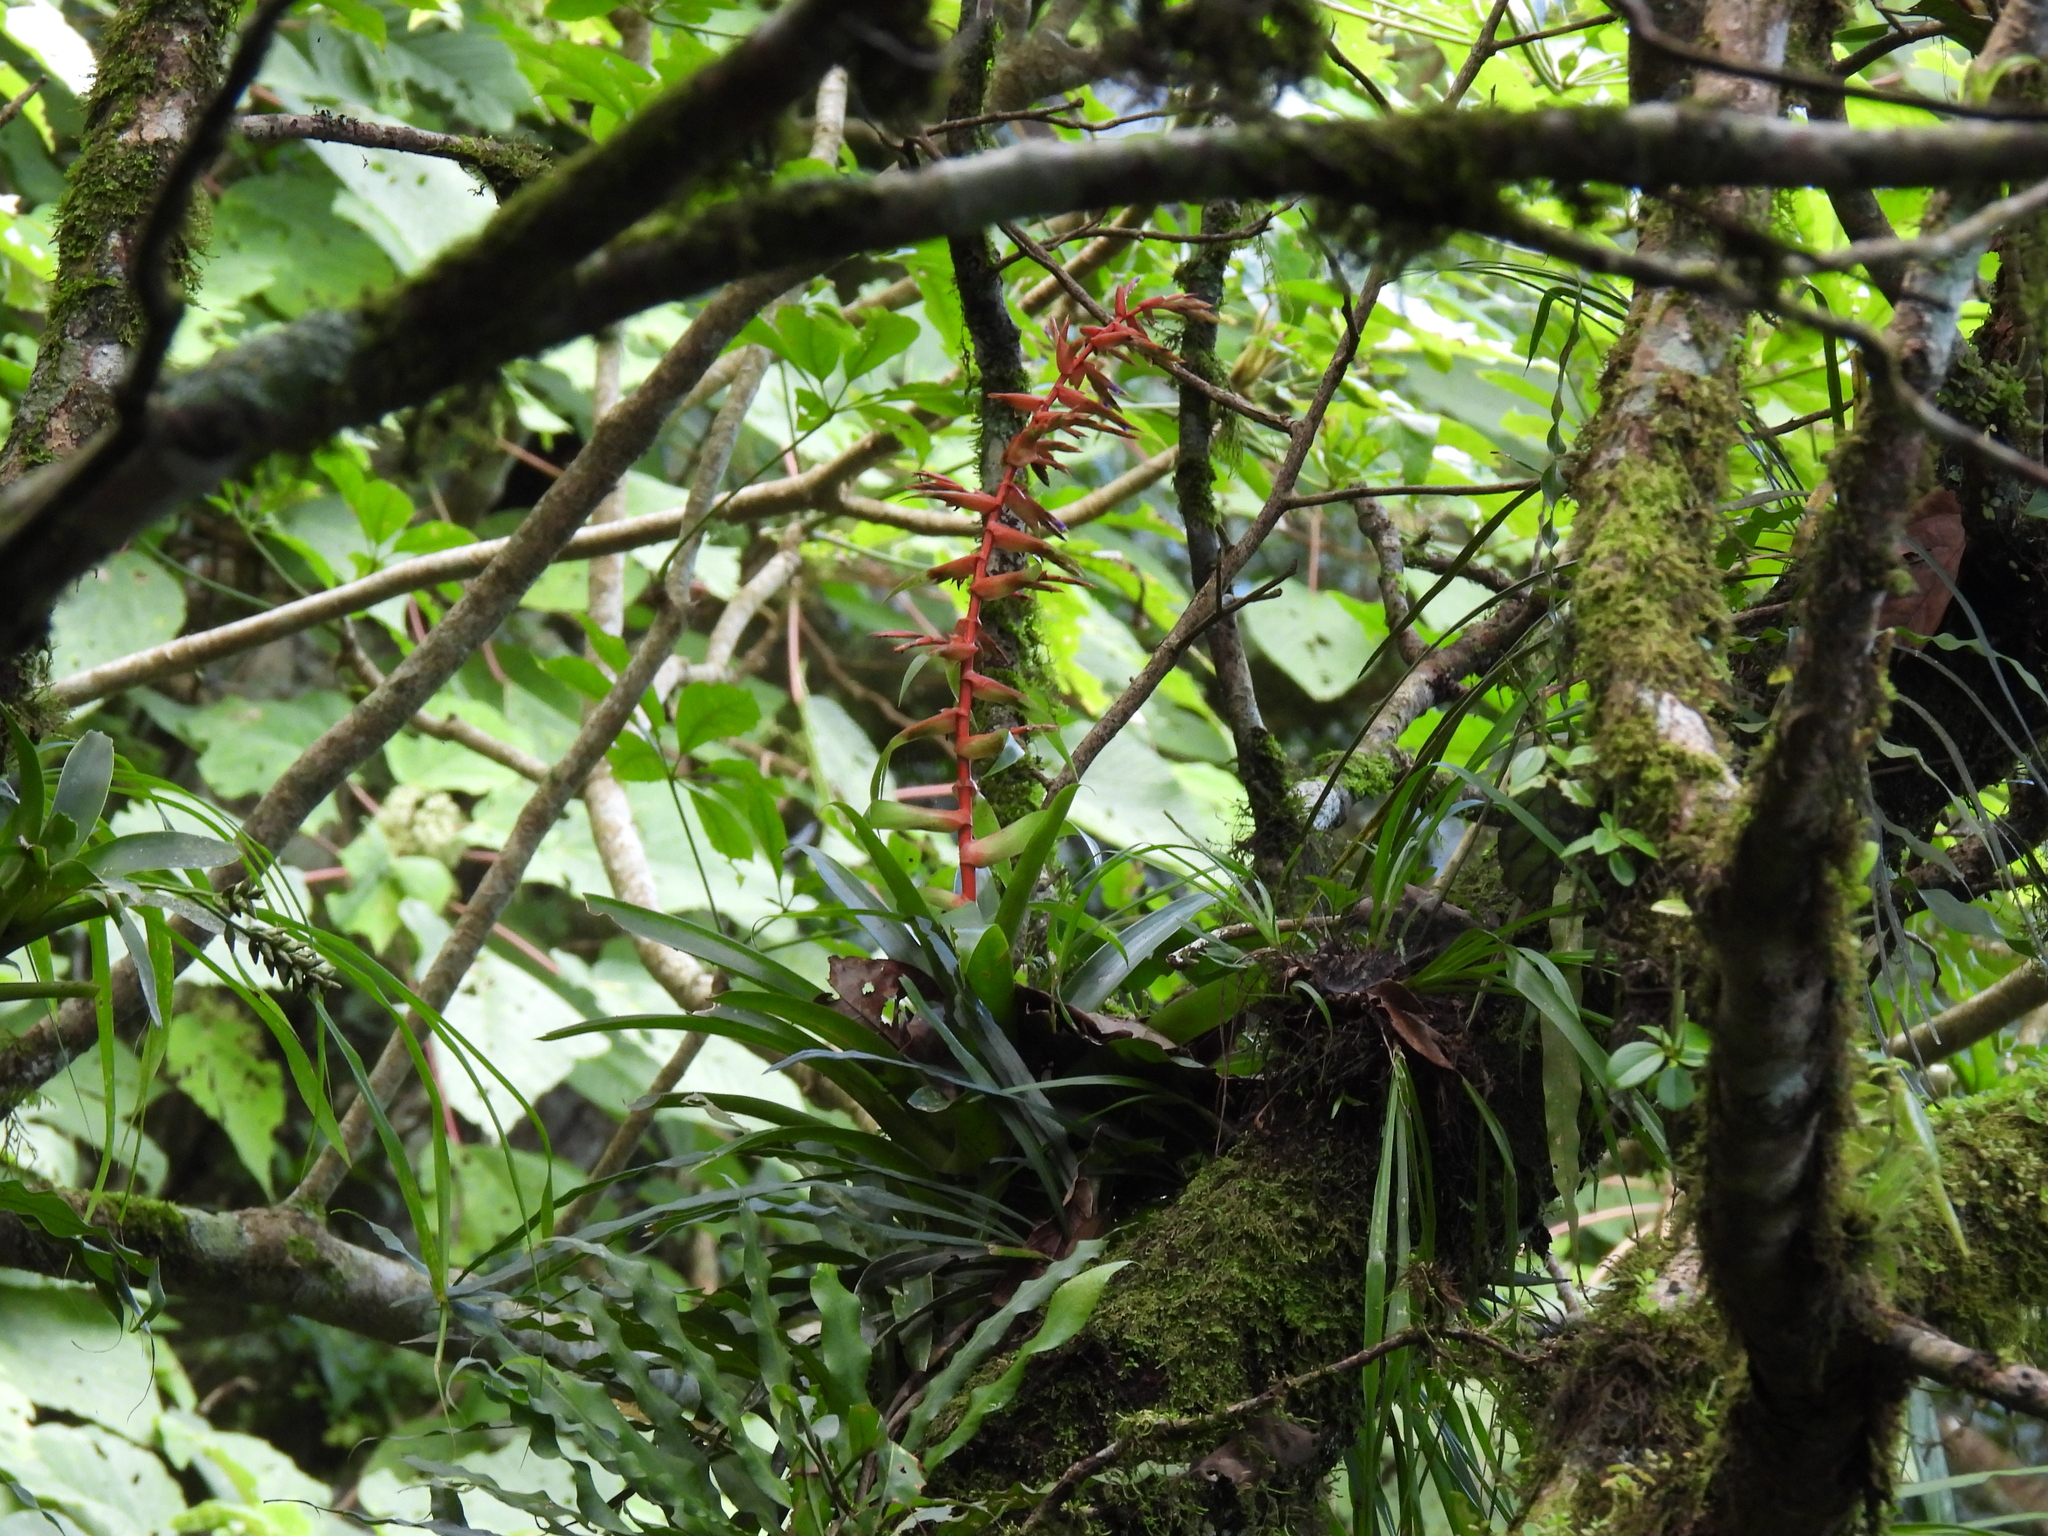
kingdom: Plantae
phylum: Tracheophyta
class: Liliopsida
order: Poales
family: Bromeliaceae
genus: Tillandsia
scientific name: Tillandsia guatemalensis
